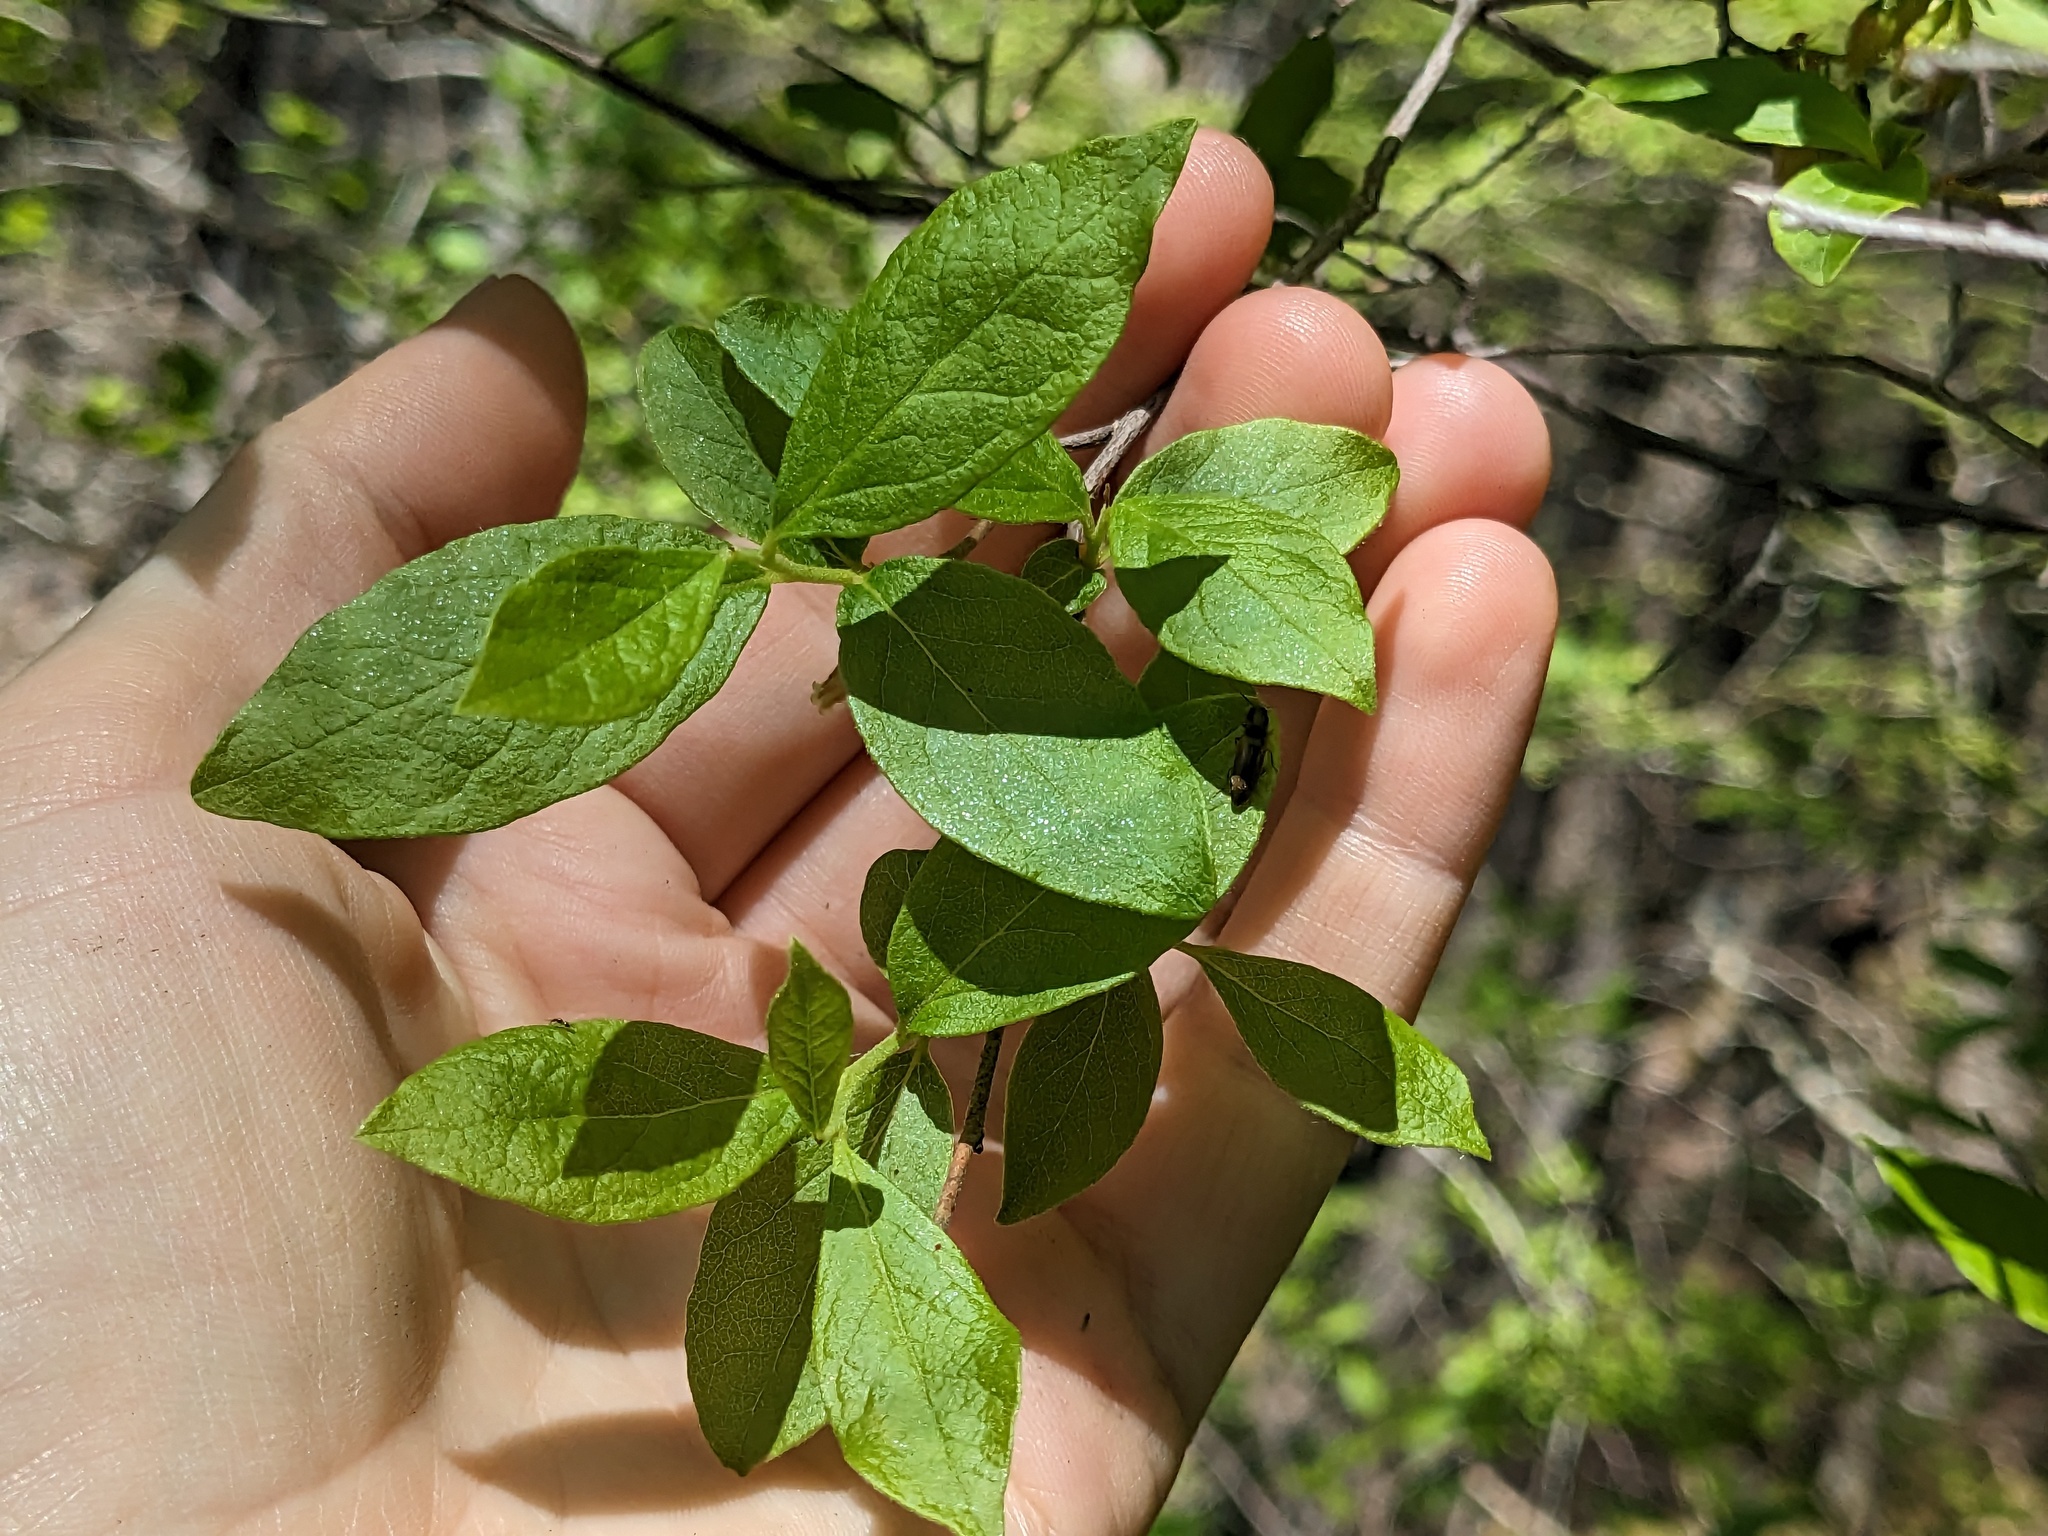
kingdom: Plantae
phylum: Tracheophyta
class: Magnoliopsida
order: Ericales
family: Ericaceae
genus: Gaylussacia
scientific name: Gaylussacia baccata
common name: Black huckleberry
